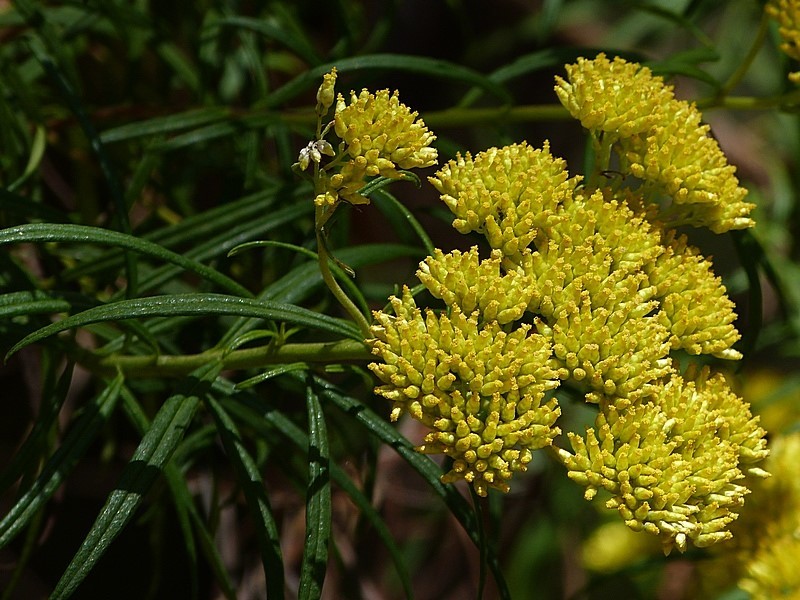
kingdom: Plantae
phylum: Tracheophyta
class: Magnoliopsida
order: Asterales
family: Asteraceae
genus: Cassinia
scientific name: Cassinia aureonitens
